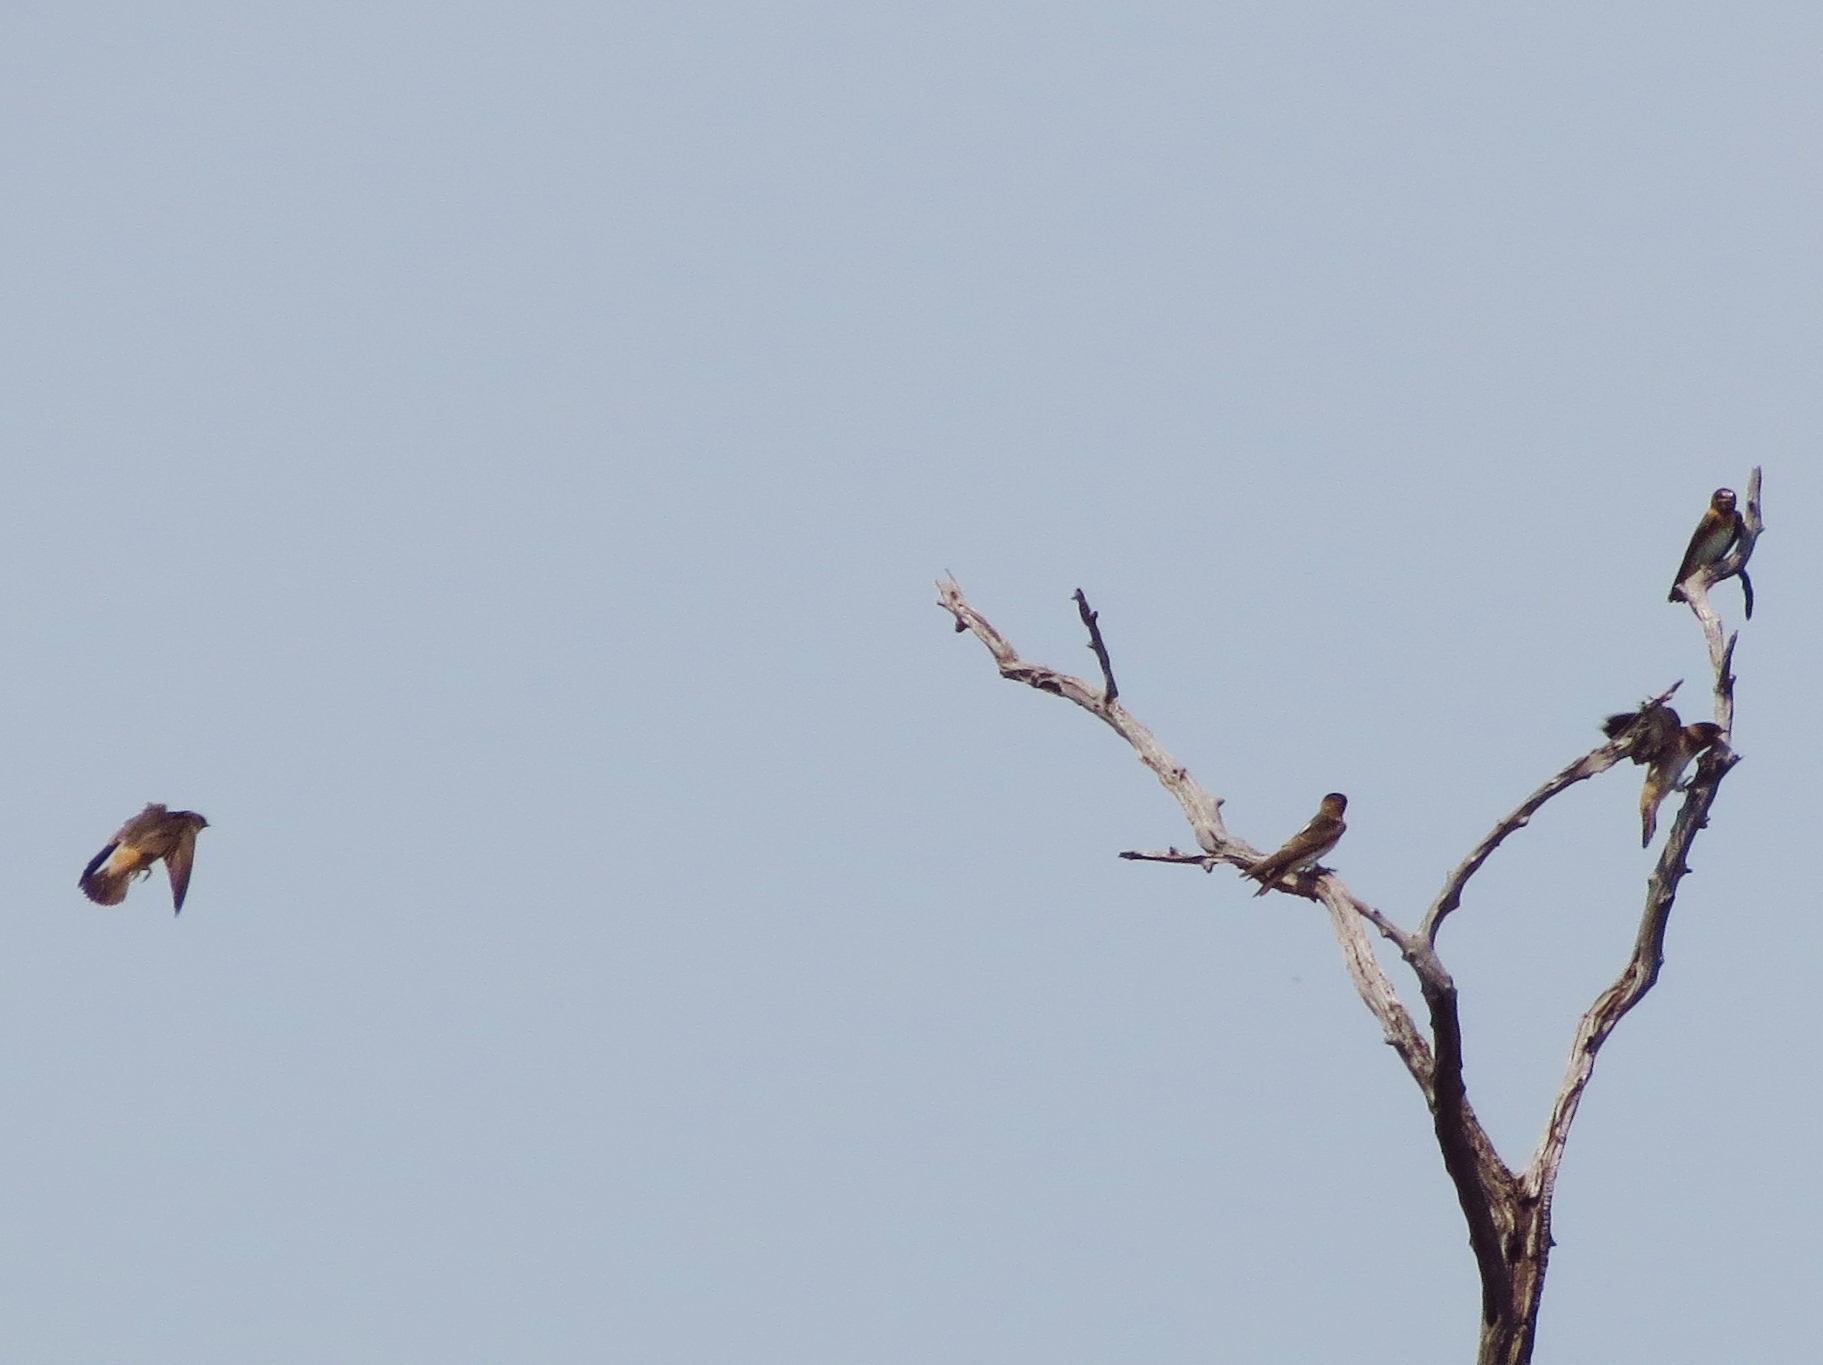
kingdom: Animalia
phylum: Chordata
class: Aves
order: Passeriformes
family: Hirundinidae
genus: Petrochelidon
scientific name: Petrochelidon pyrrhonota
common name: American cliff swallow
